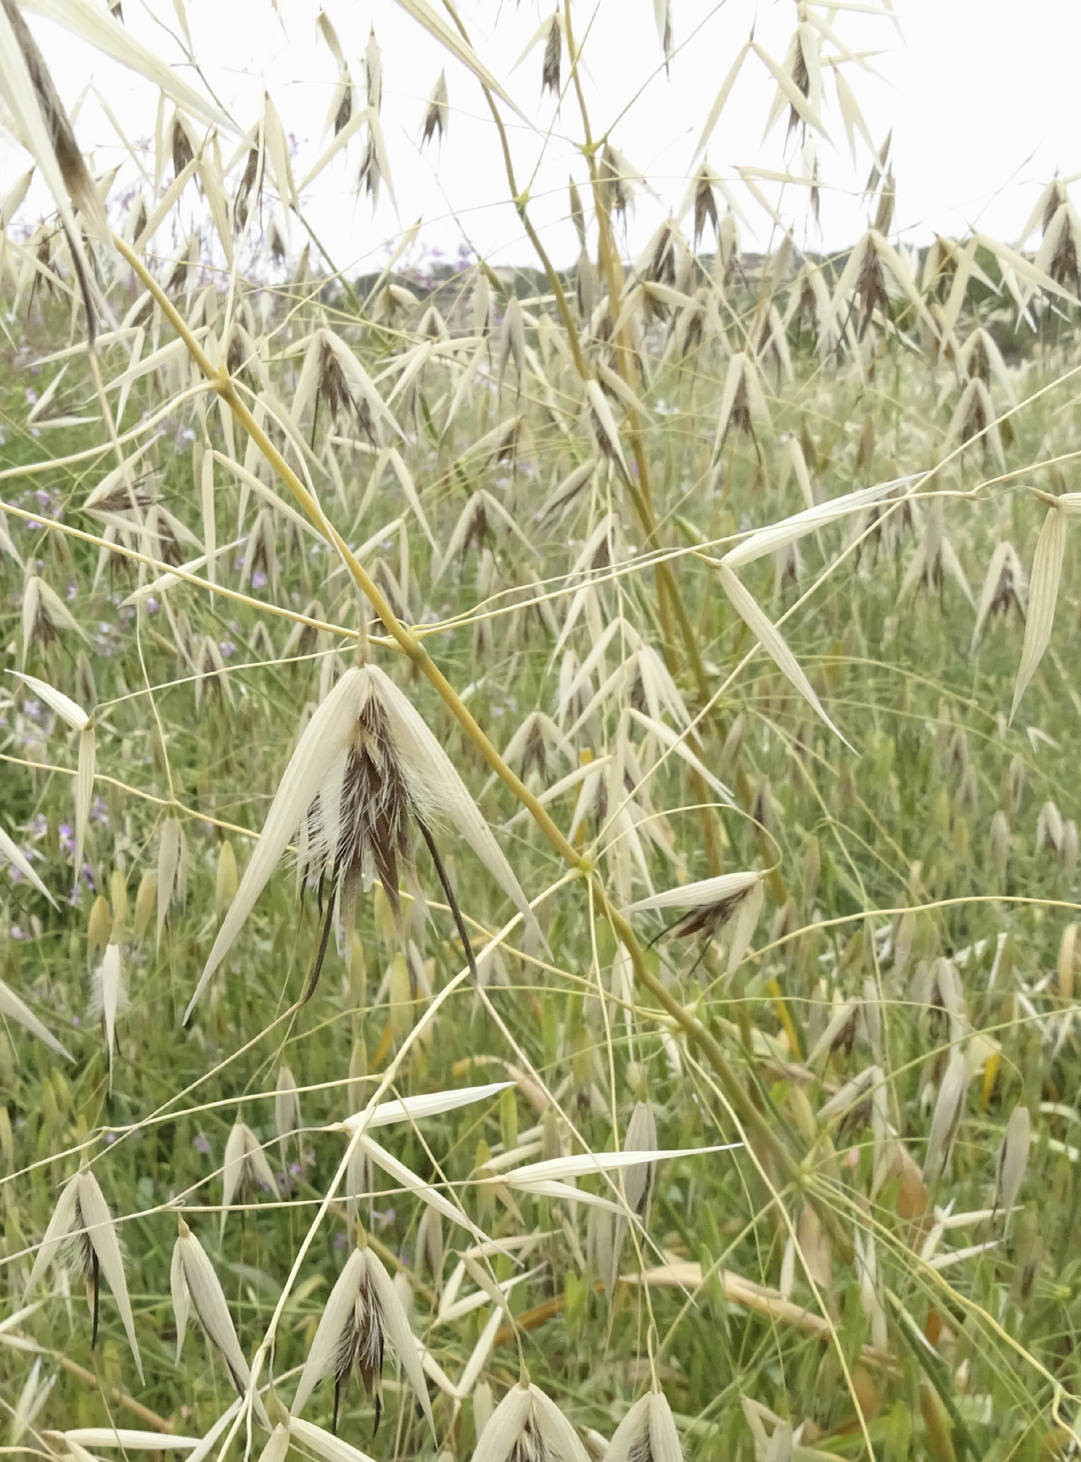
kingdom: Plantae
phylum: Tracheophyta
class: Liliopsida
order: Poales
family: Poaceae
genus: Avena
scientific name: Avena barbata
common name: Slender oat
